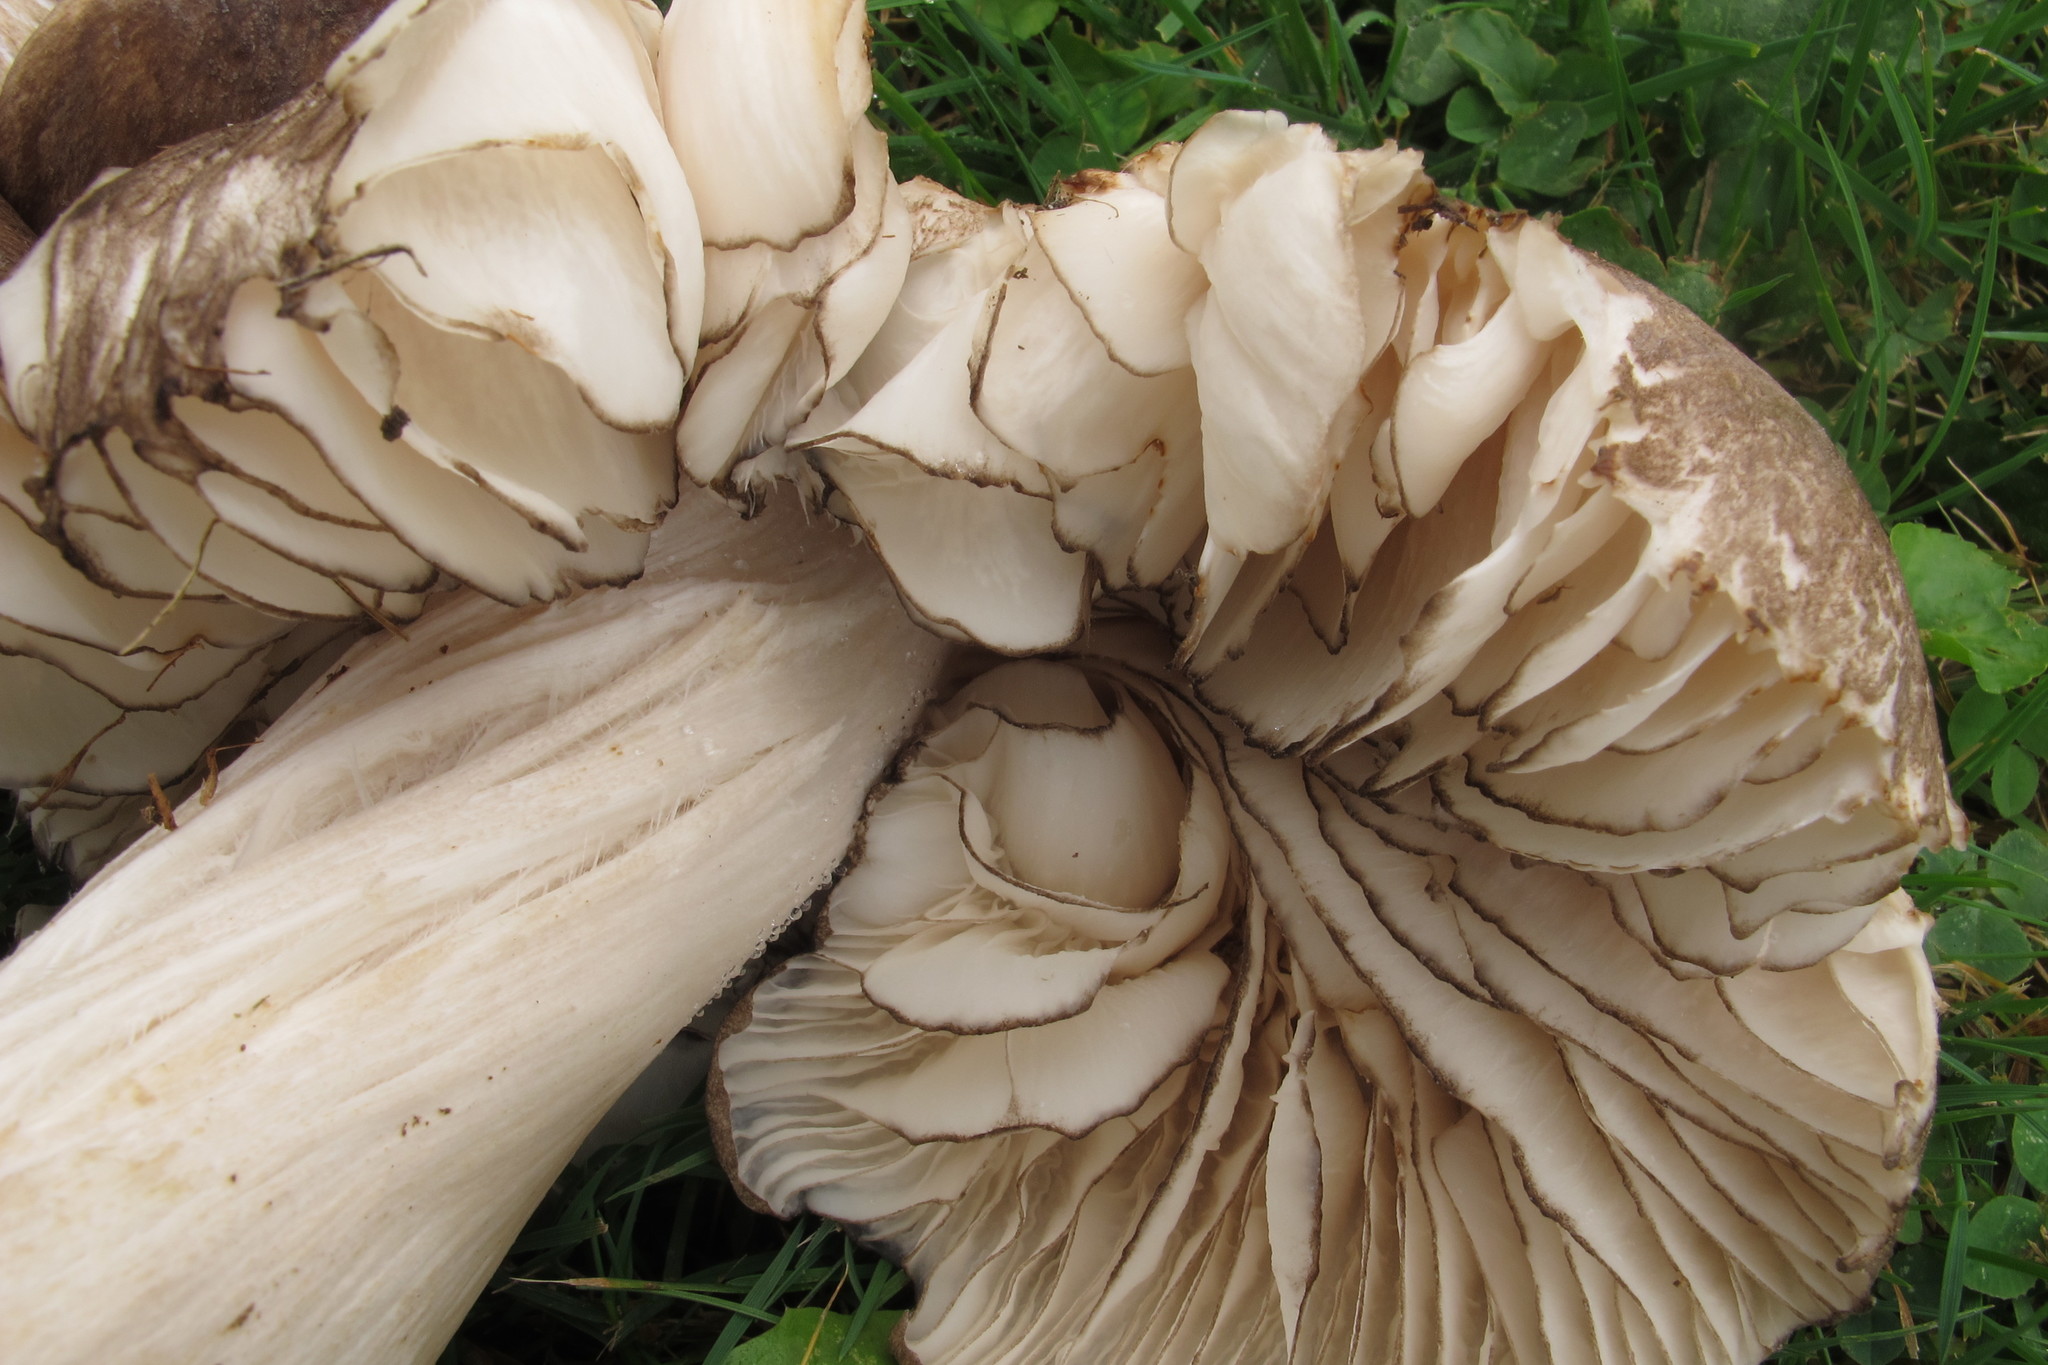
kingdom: Fungi
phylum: Basidiomycota
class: Agaricomycetes
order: Agaricales
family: Tricholomataceae
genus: Megacollybia
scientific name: Megacollybia subfurfuracea
